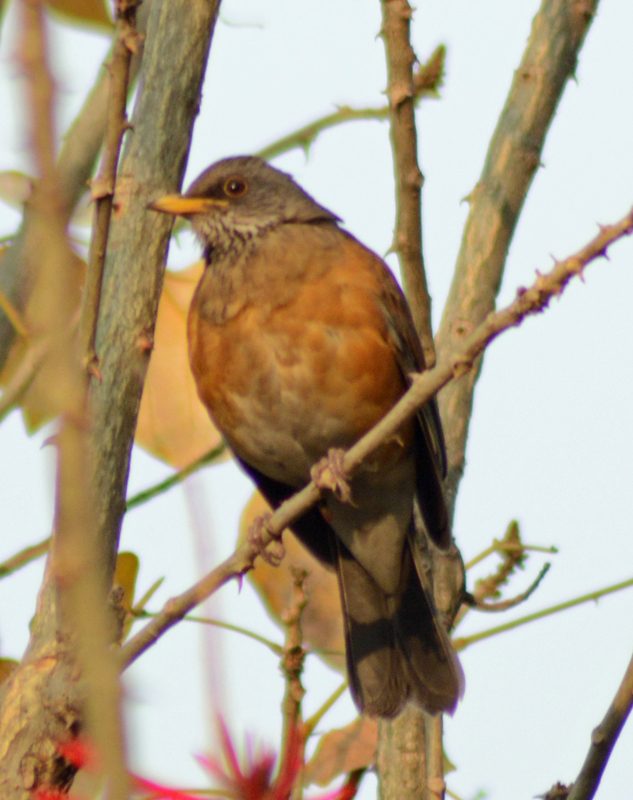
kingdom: Animalia
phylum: Chordata
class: Aves
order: Passeriformes
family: Turdidae
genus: Turdus
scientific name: Turdus rufopalliatus
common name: Rufous-backed robin
